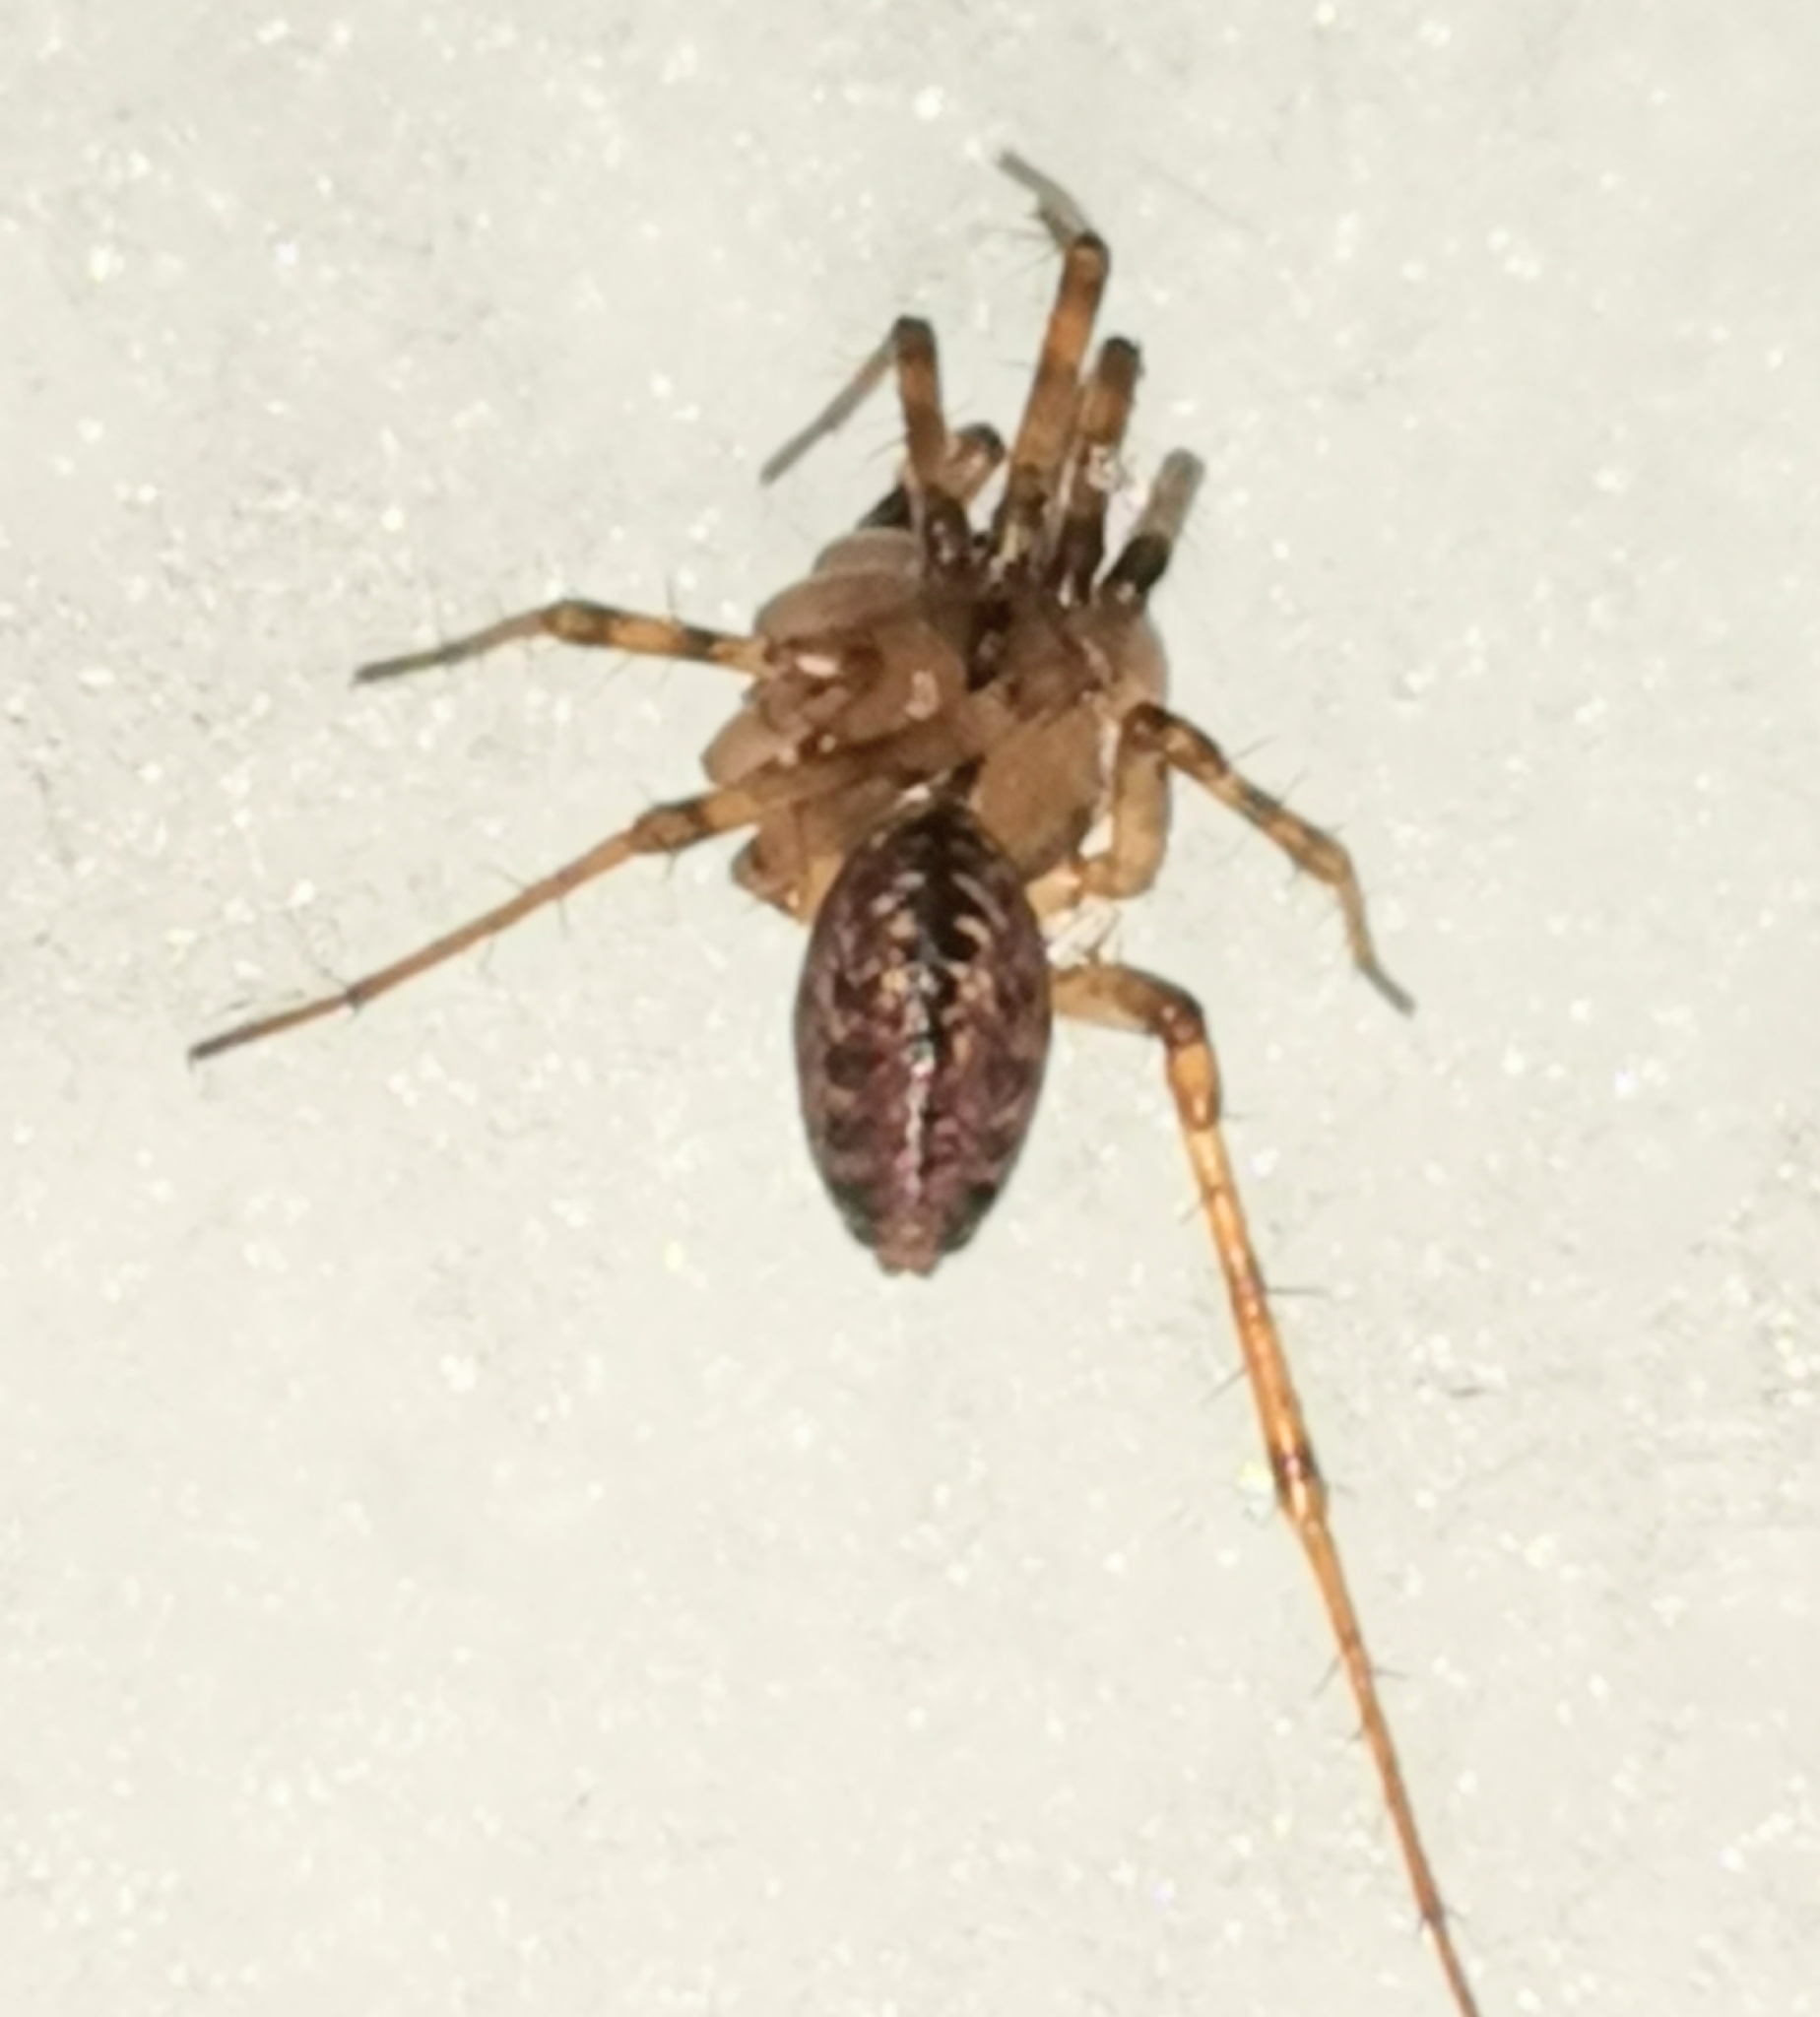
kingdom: Animalia
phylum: Arthropoda
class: Arachnida
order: Araneae
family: Linyphiidae
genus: Stemonyphantes
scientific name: Stemonyphantes lineatus
